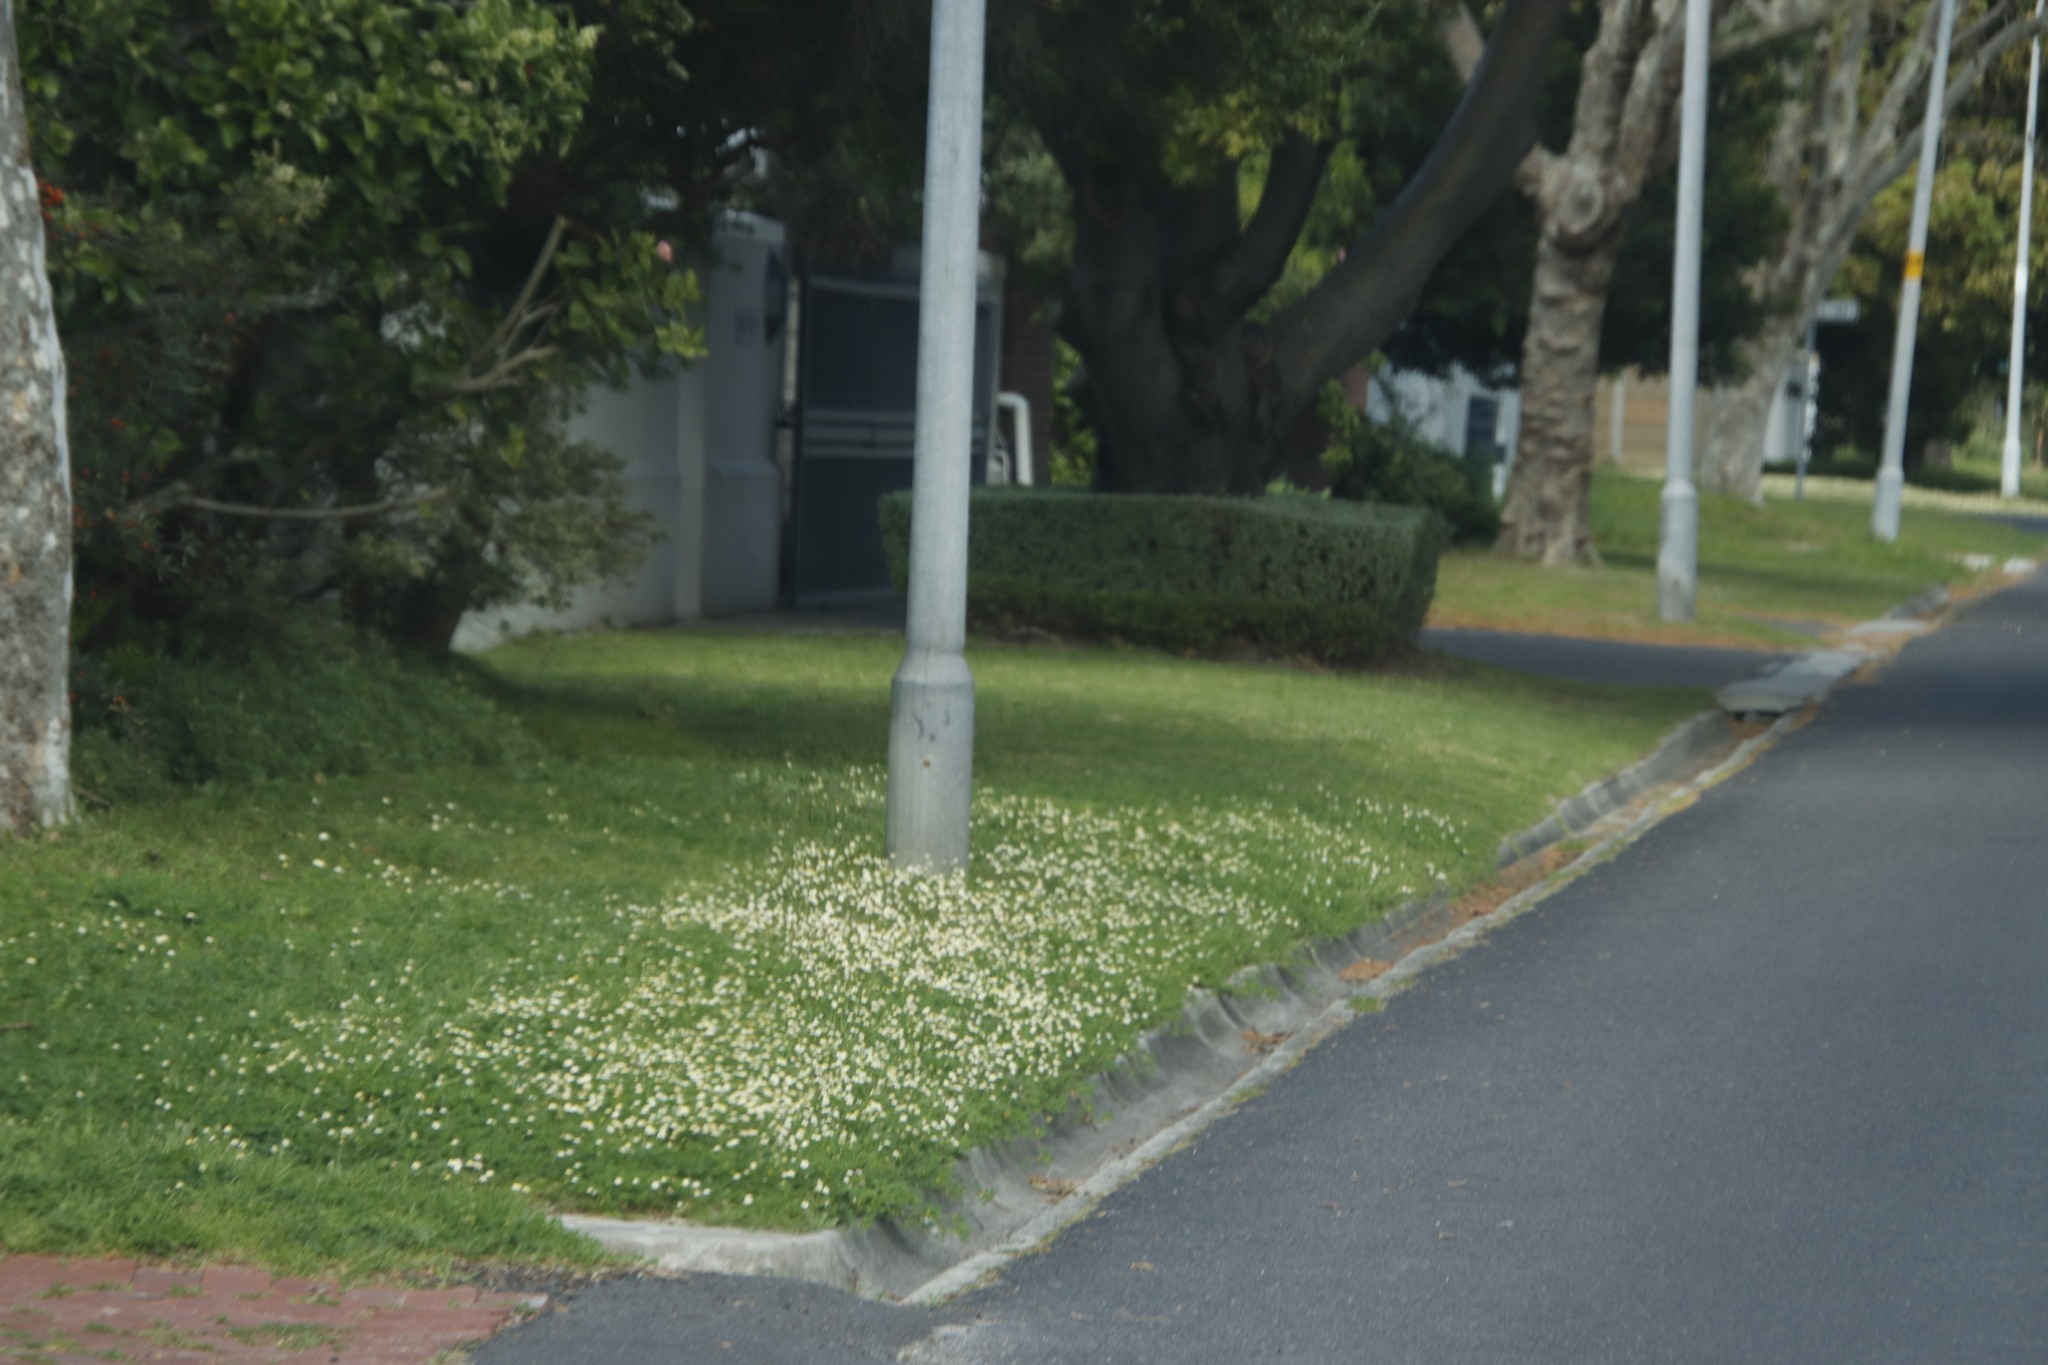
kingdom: Plantae
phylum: Tracheophyta
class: Magnoliopsida
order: Asterales
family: Asteraceae
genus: Cotula
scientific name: Cotula turbinata
